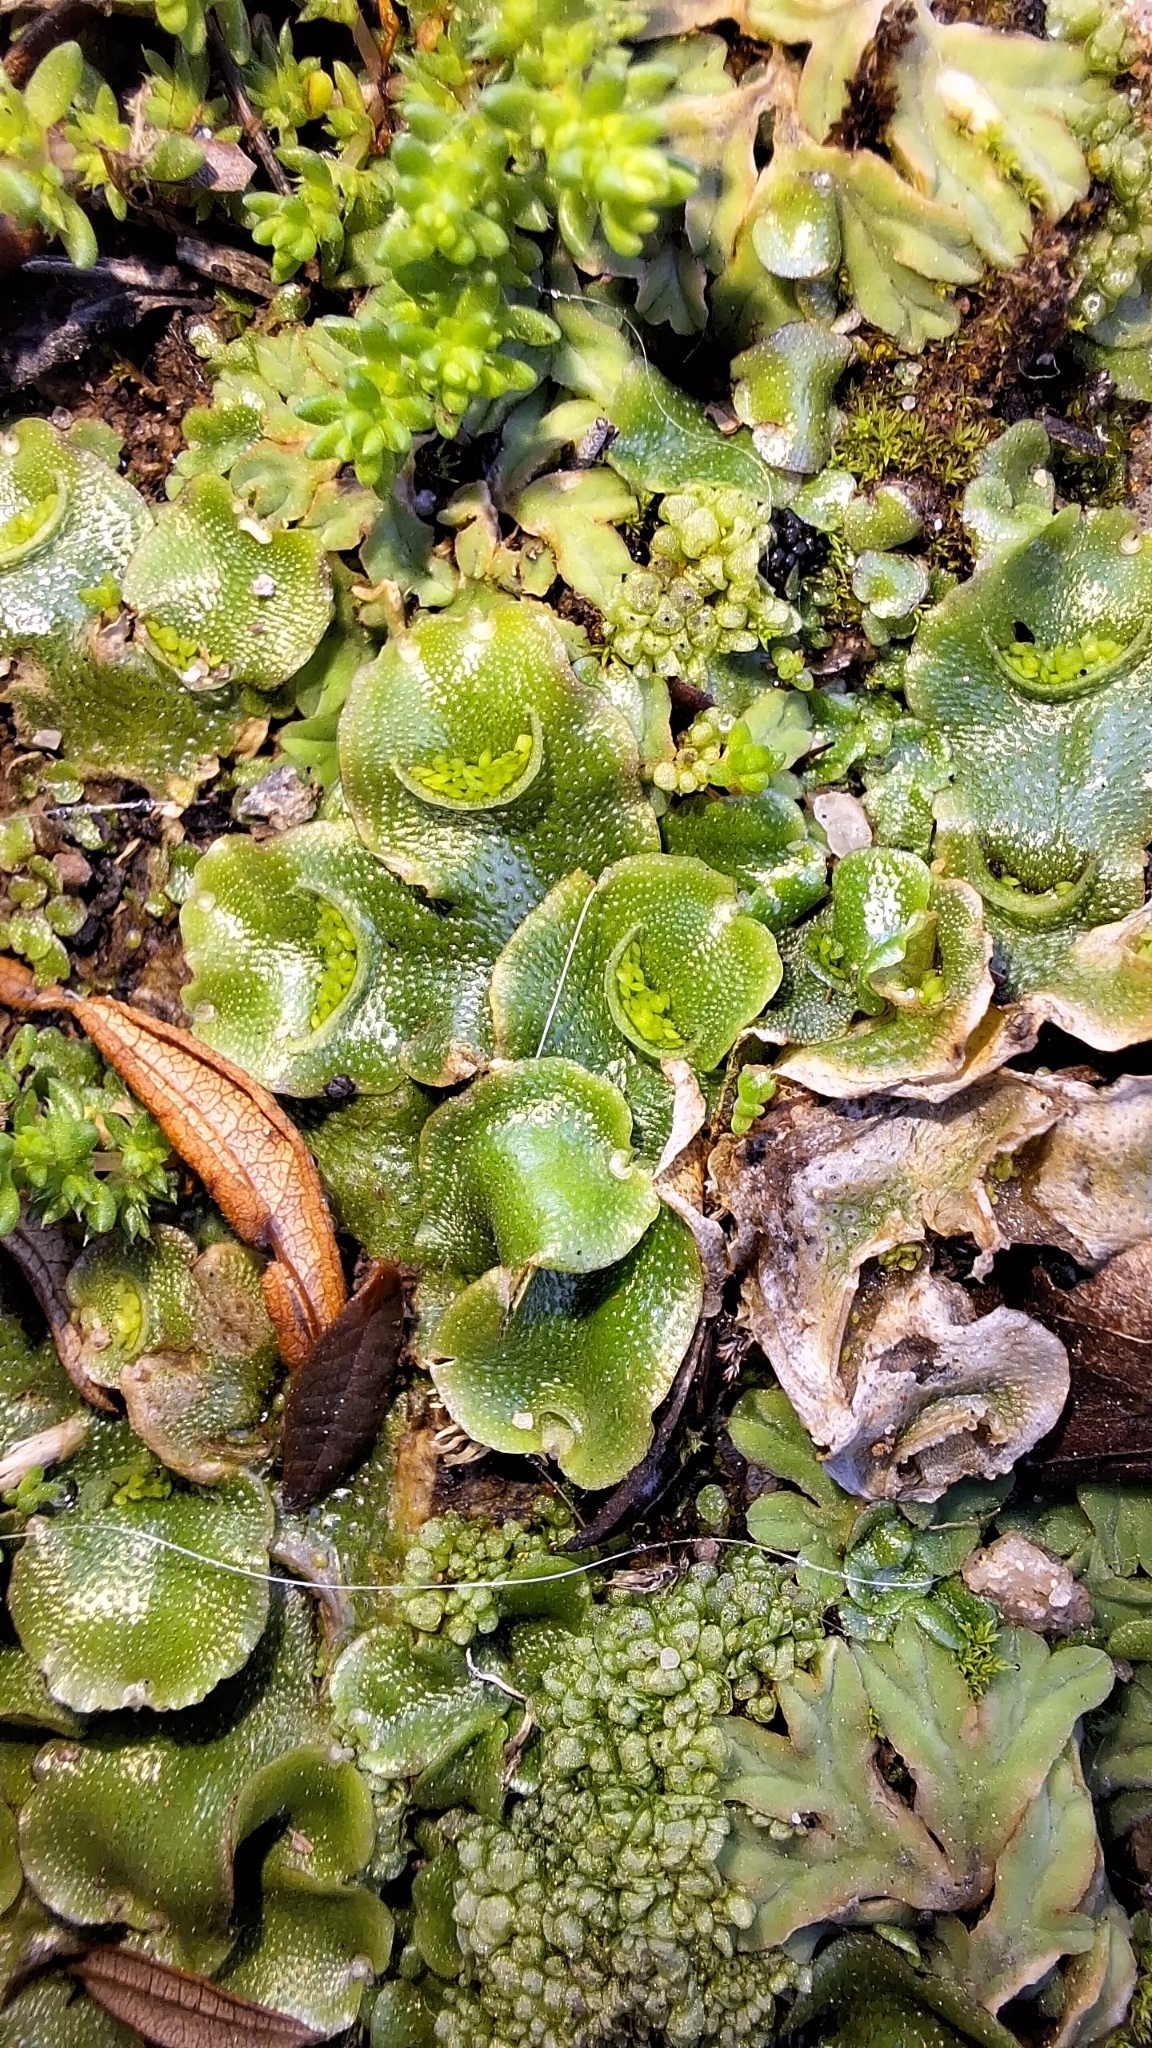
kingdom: Plantae
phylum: Marchantiophyta
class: Marchantiopsida
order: Lunulariales
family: Lunulariaceae
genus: Lunularia
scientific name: Lunularia cruciata
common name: Crescent-cup liverwort
